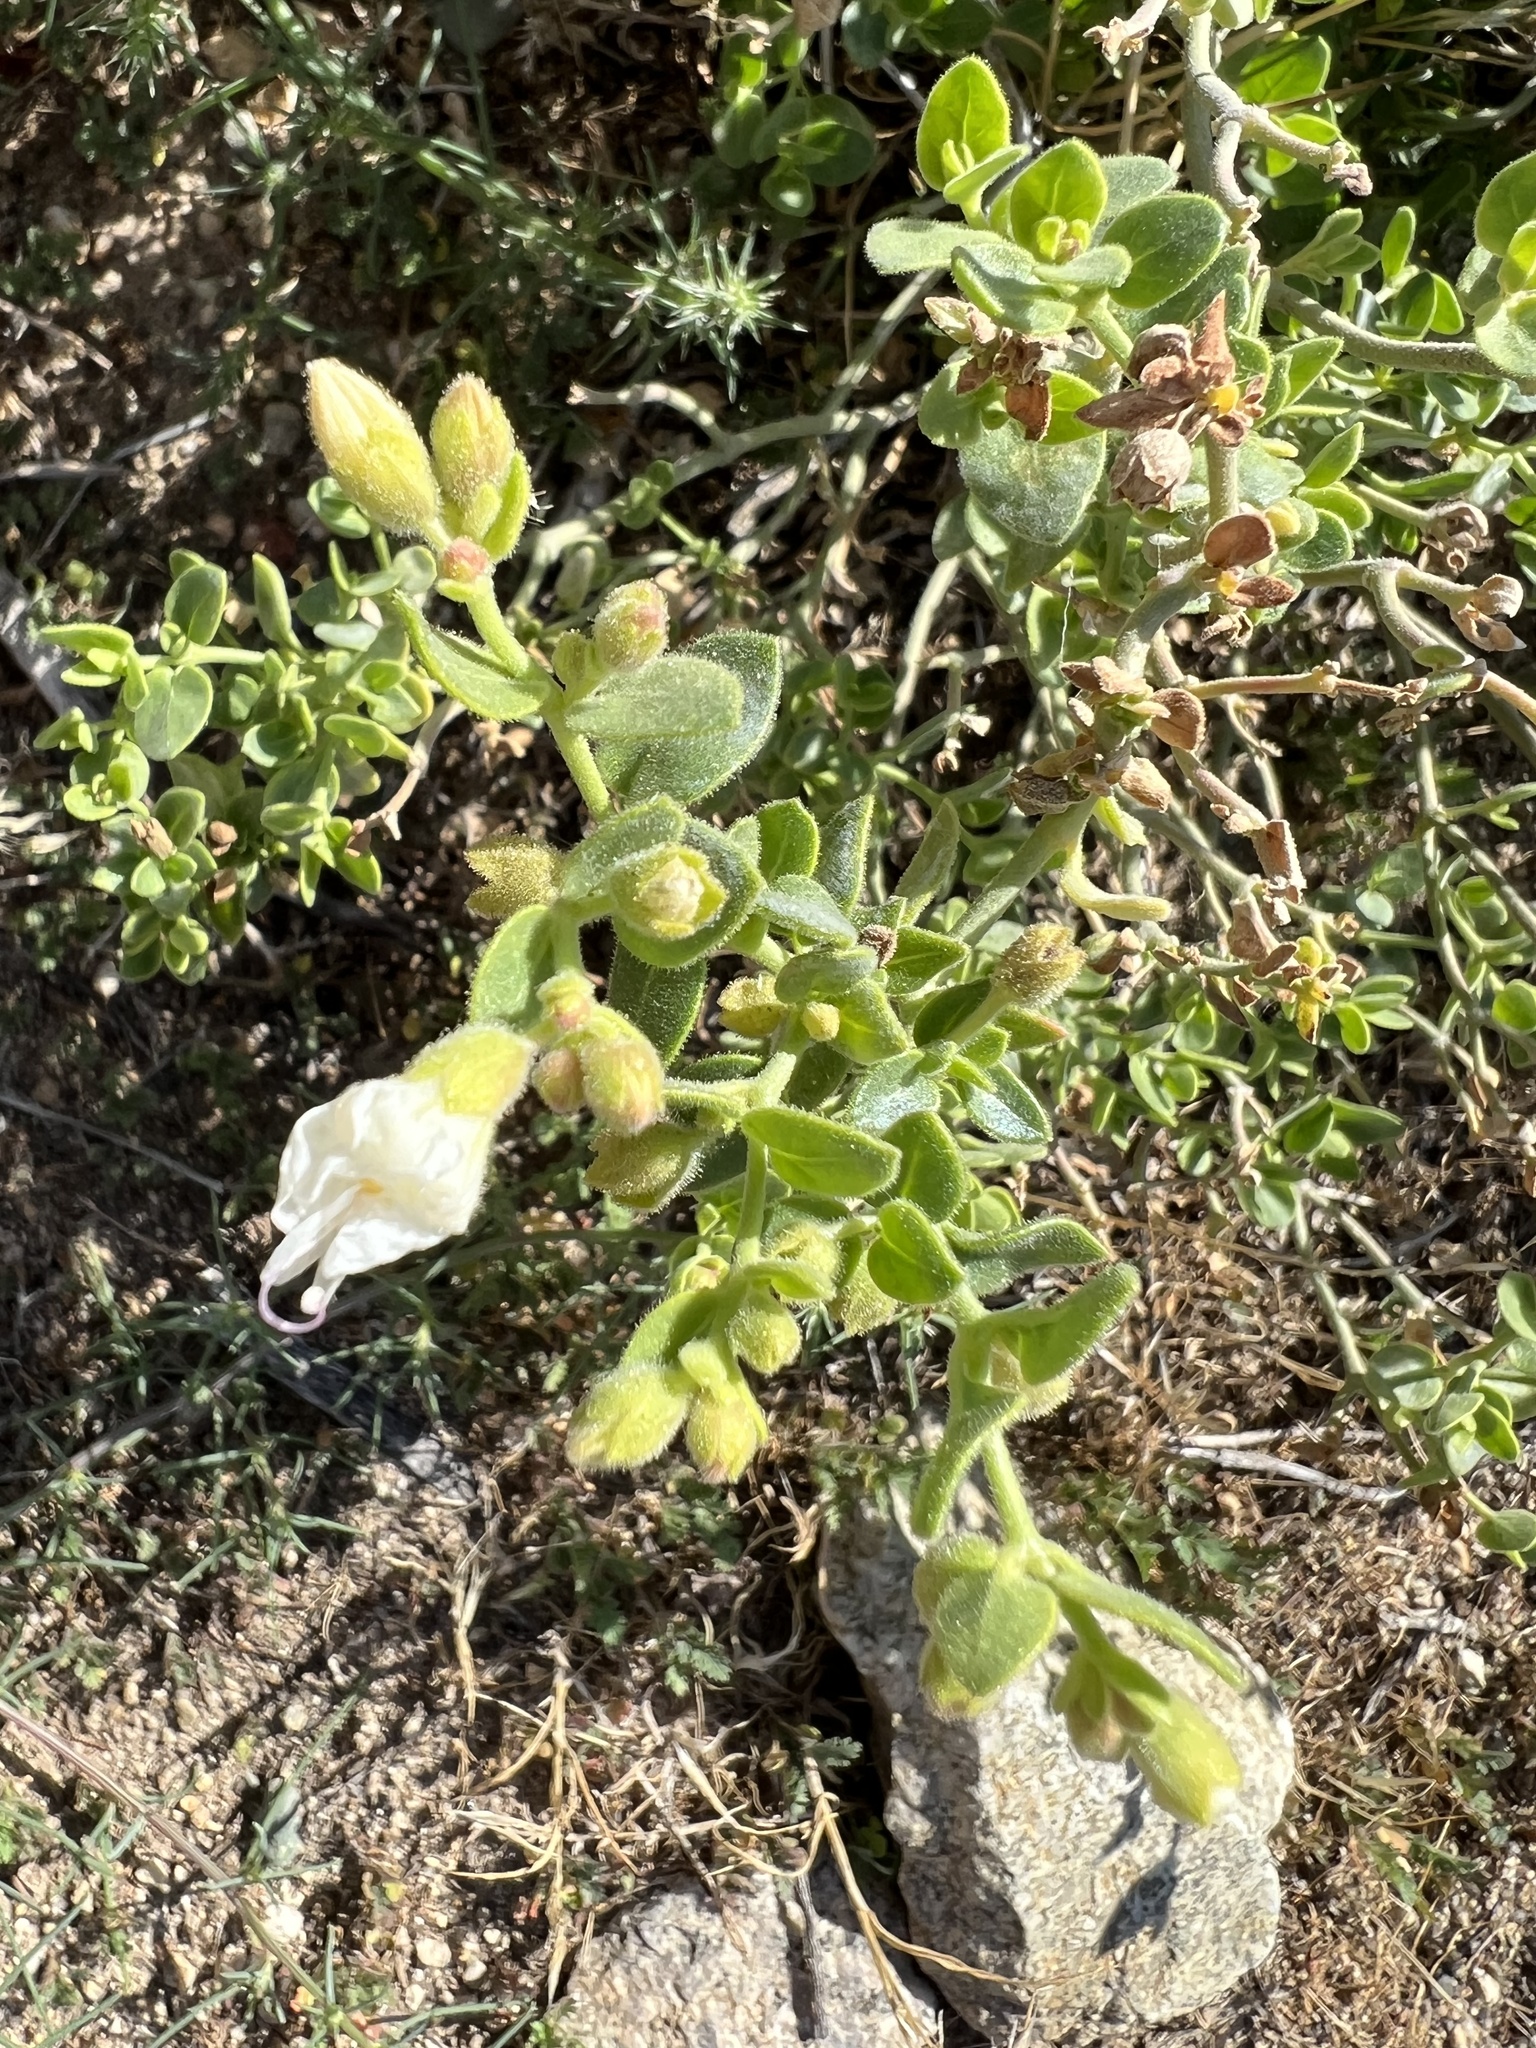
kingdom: Plantae
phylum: Tracheophyta
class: Magnoliopsida
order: Caryophyllales
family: Nyctaginaceae
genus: Mirabilis
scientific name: Mirabilis laevis
